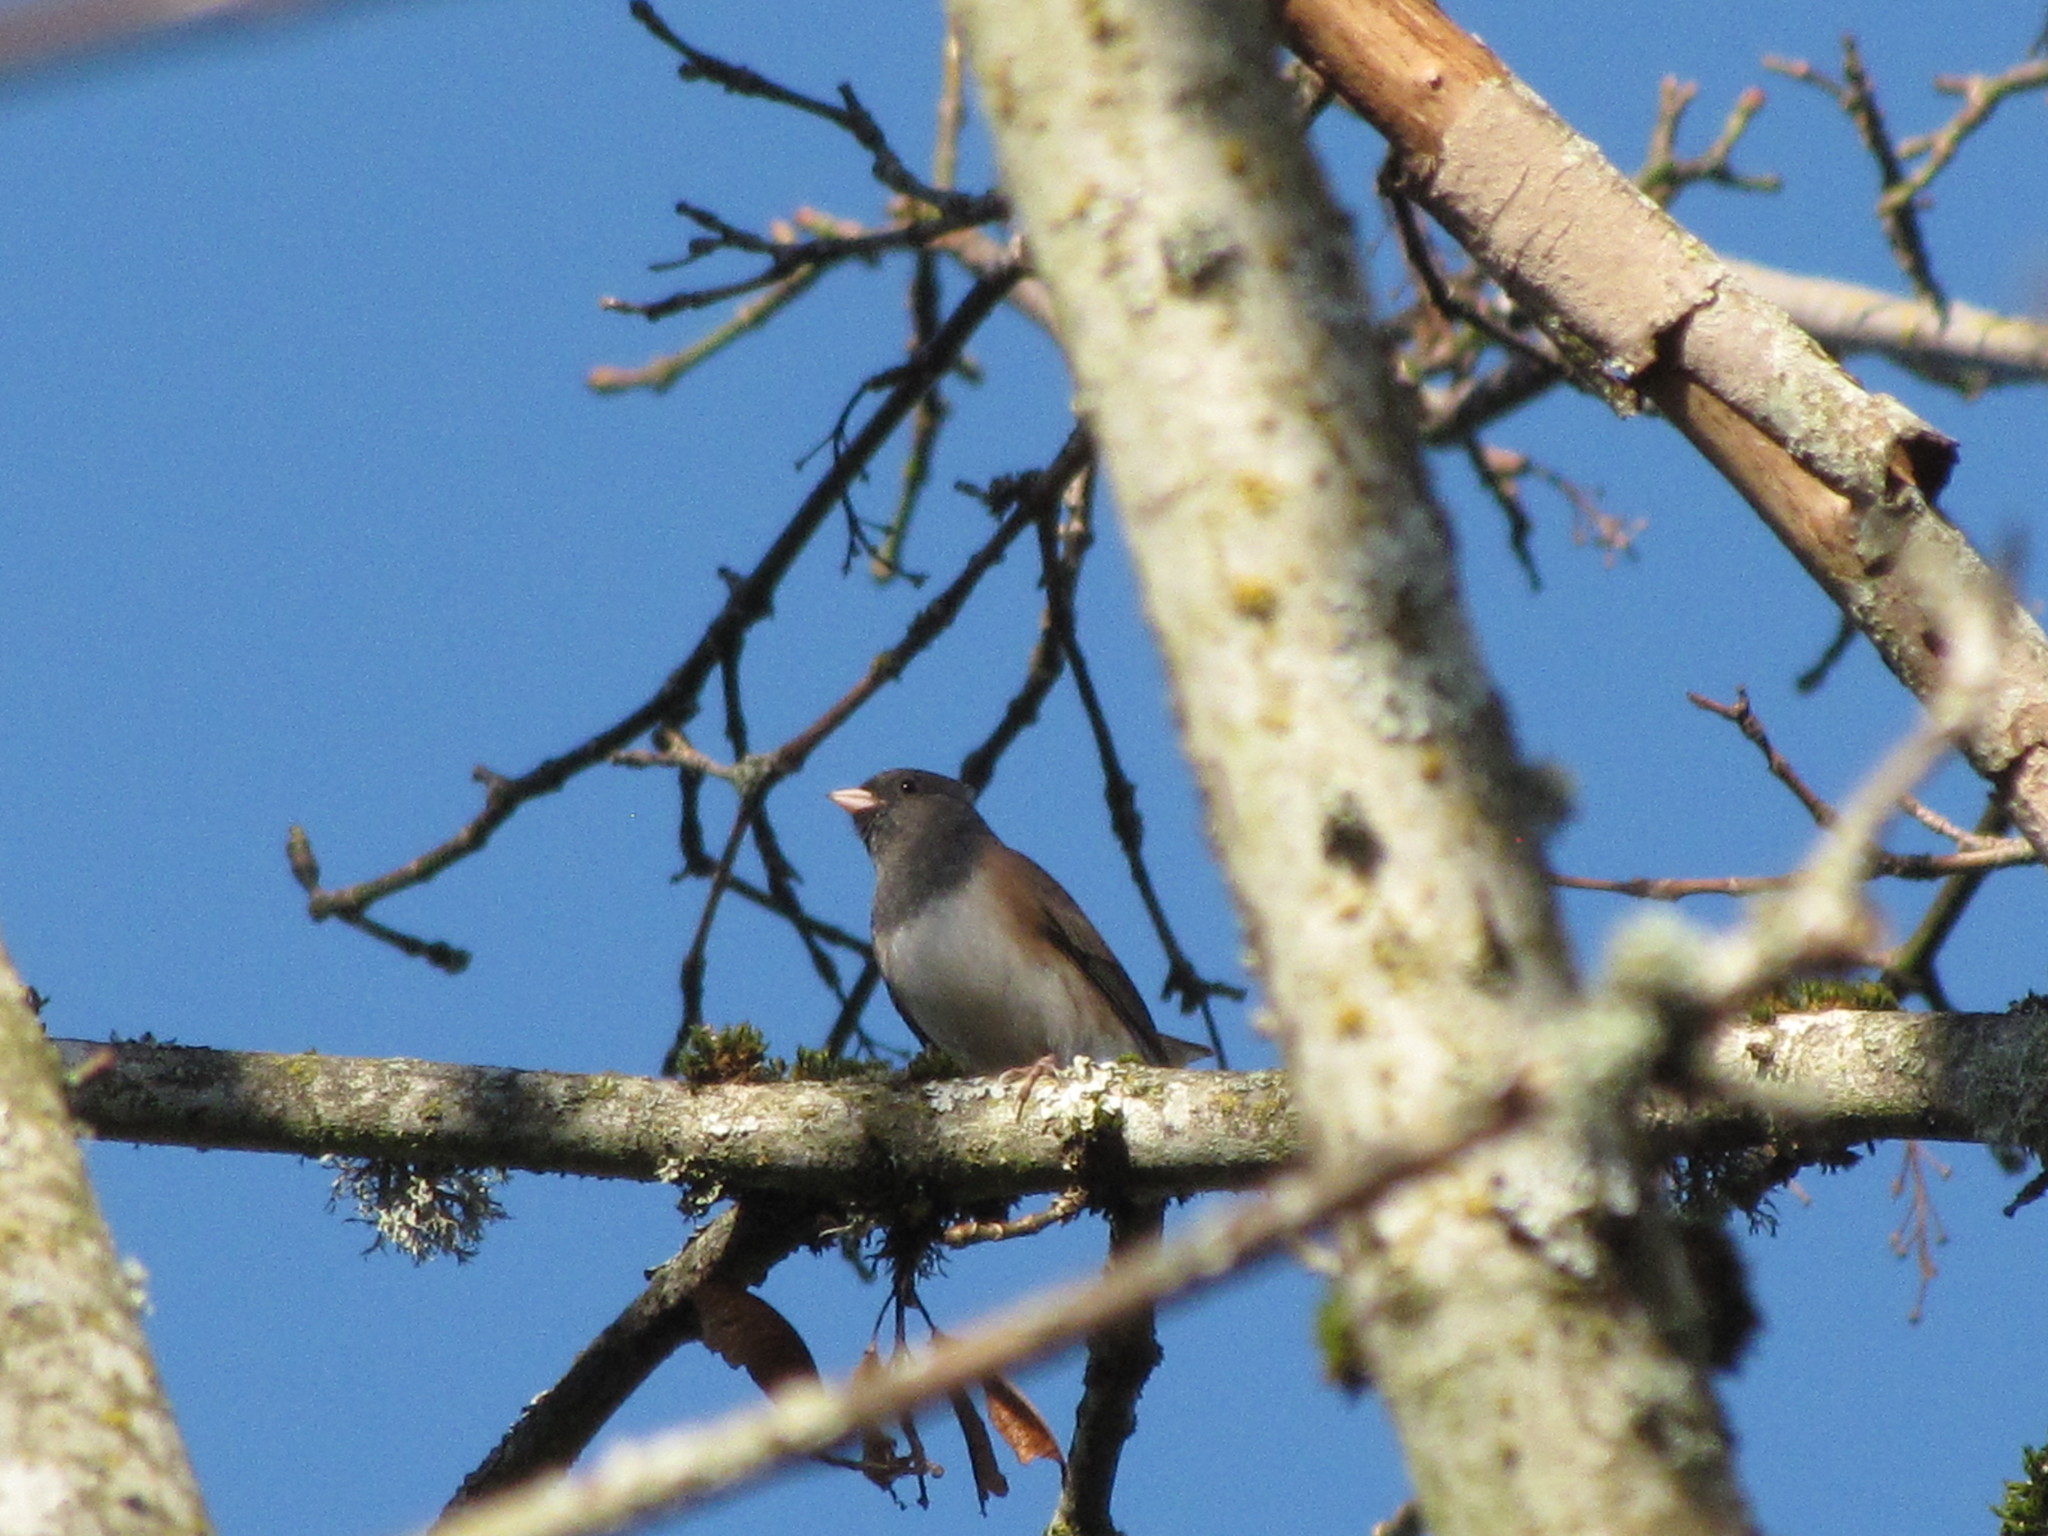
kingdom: Animalia
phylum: Chordata
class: Aves
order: Passeriformes
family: Passerellidae
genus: Junco
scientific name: Junco hyemalis
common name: Dark-eyed junco
